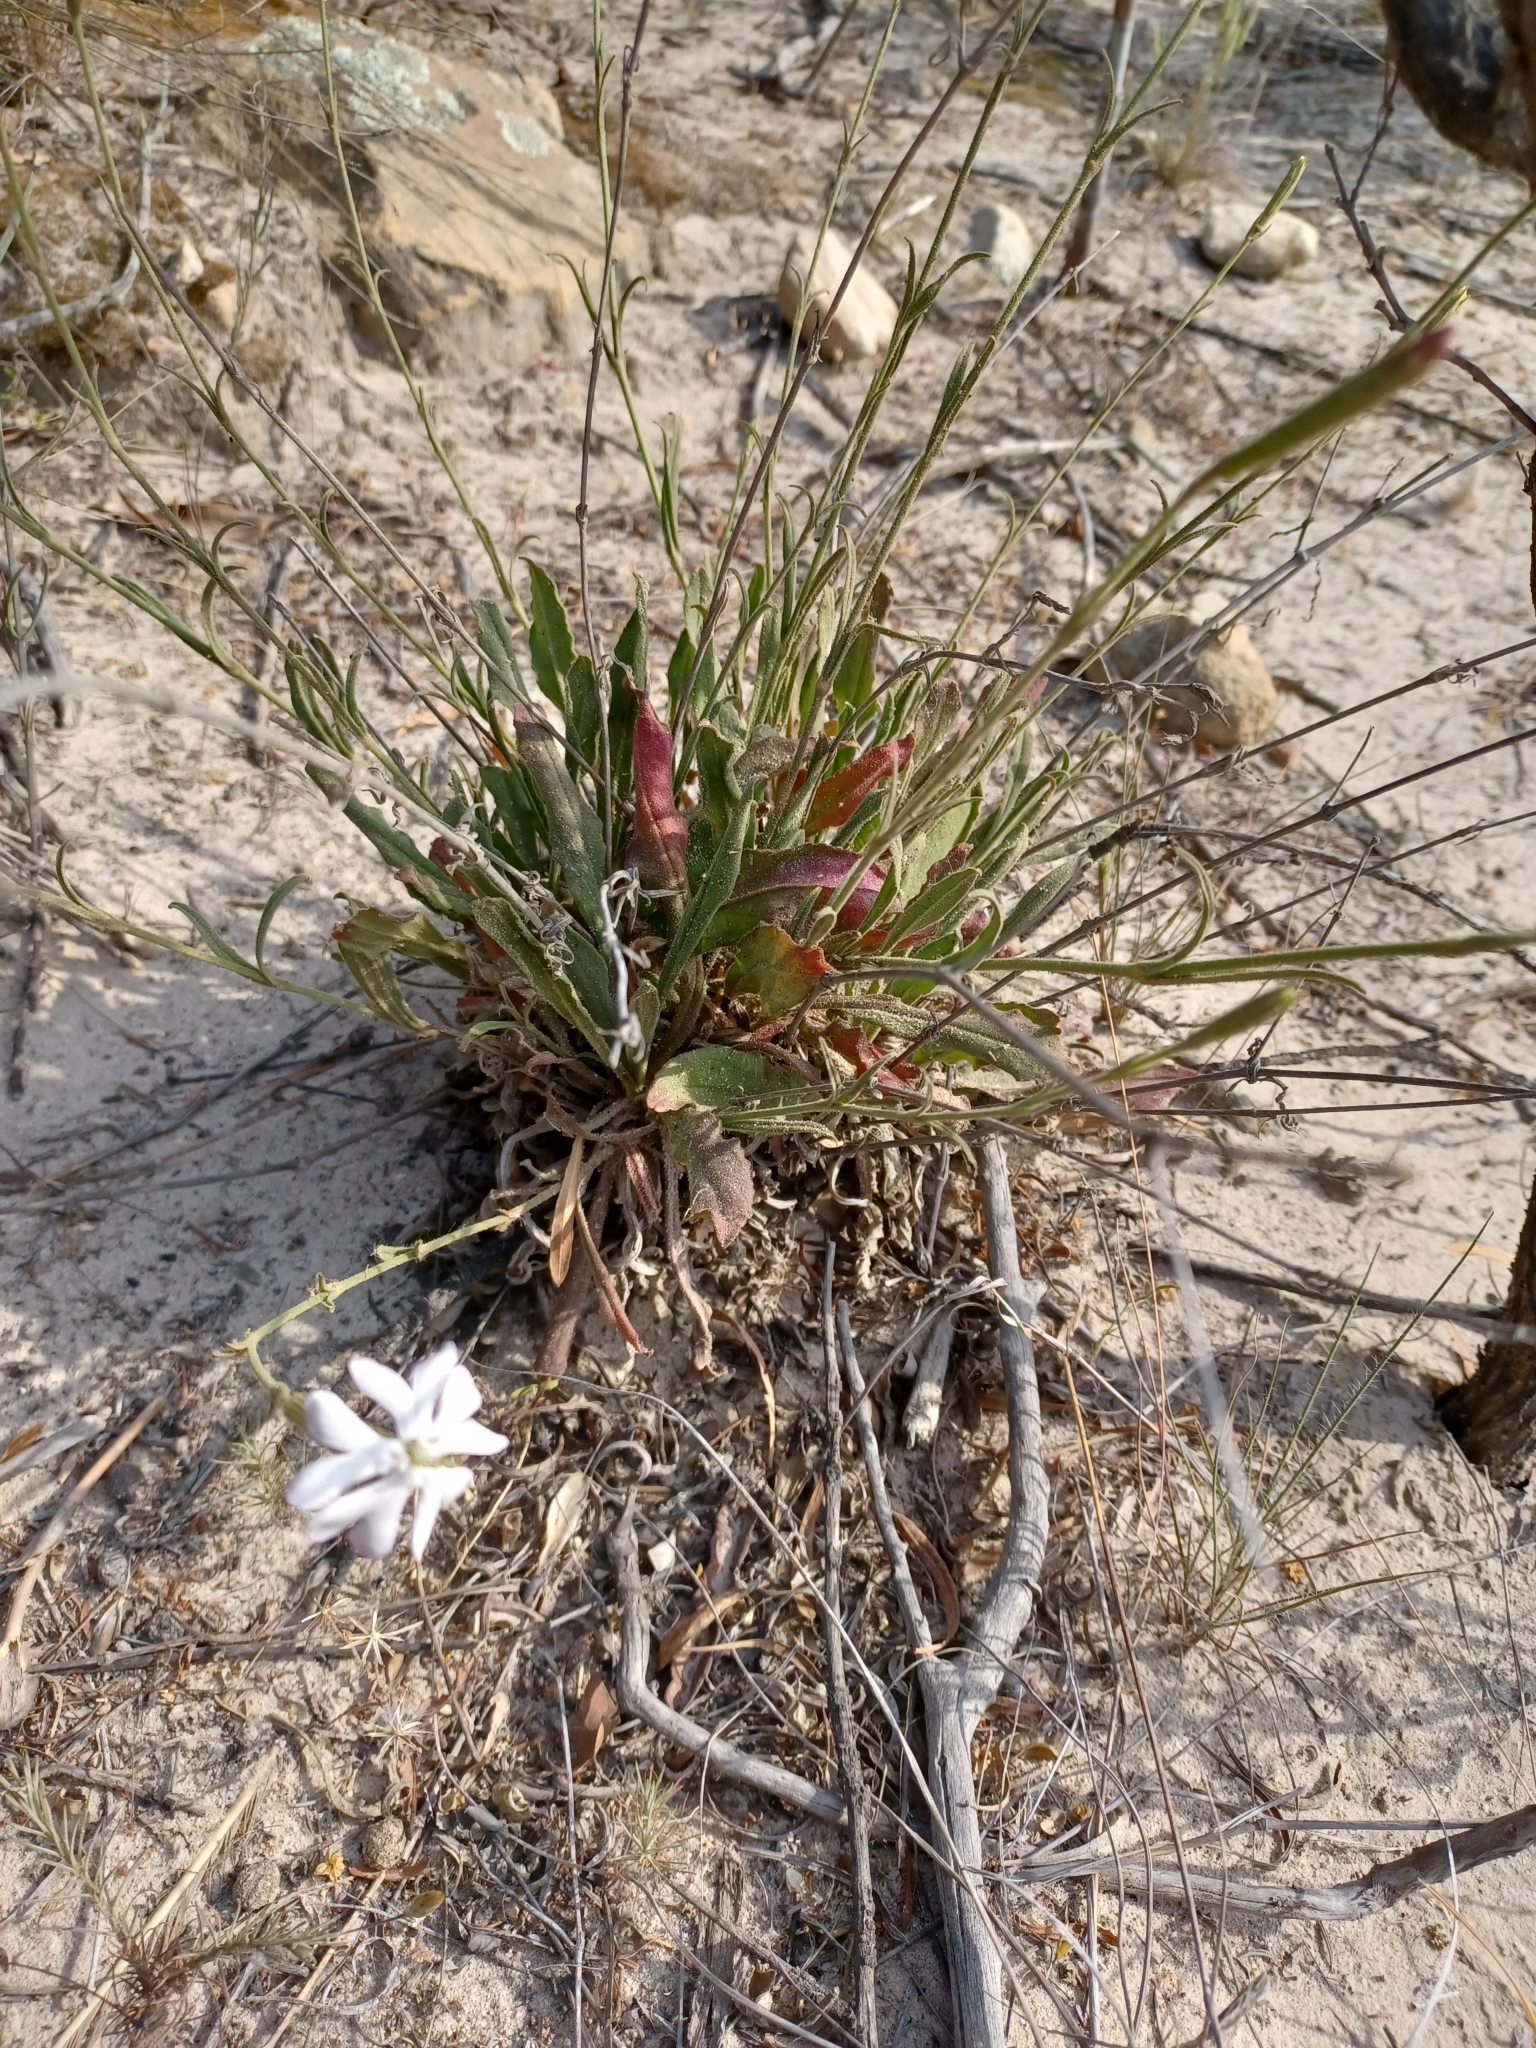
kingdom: Plantae
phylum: Tracheophyta
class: Magnoliopsida
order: Caryophyllales
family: Caryophyllaceae
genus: Silene
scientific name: Silene undulata
